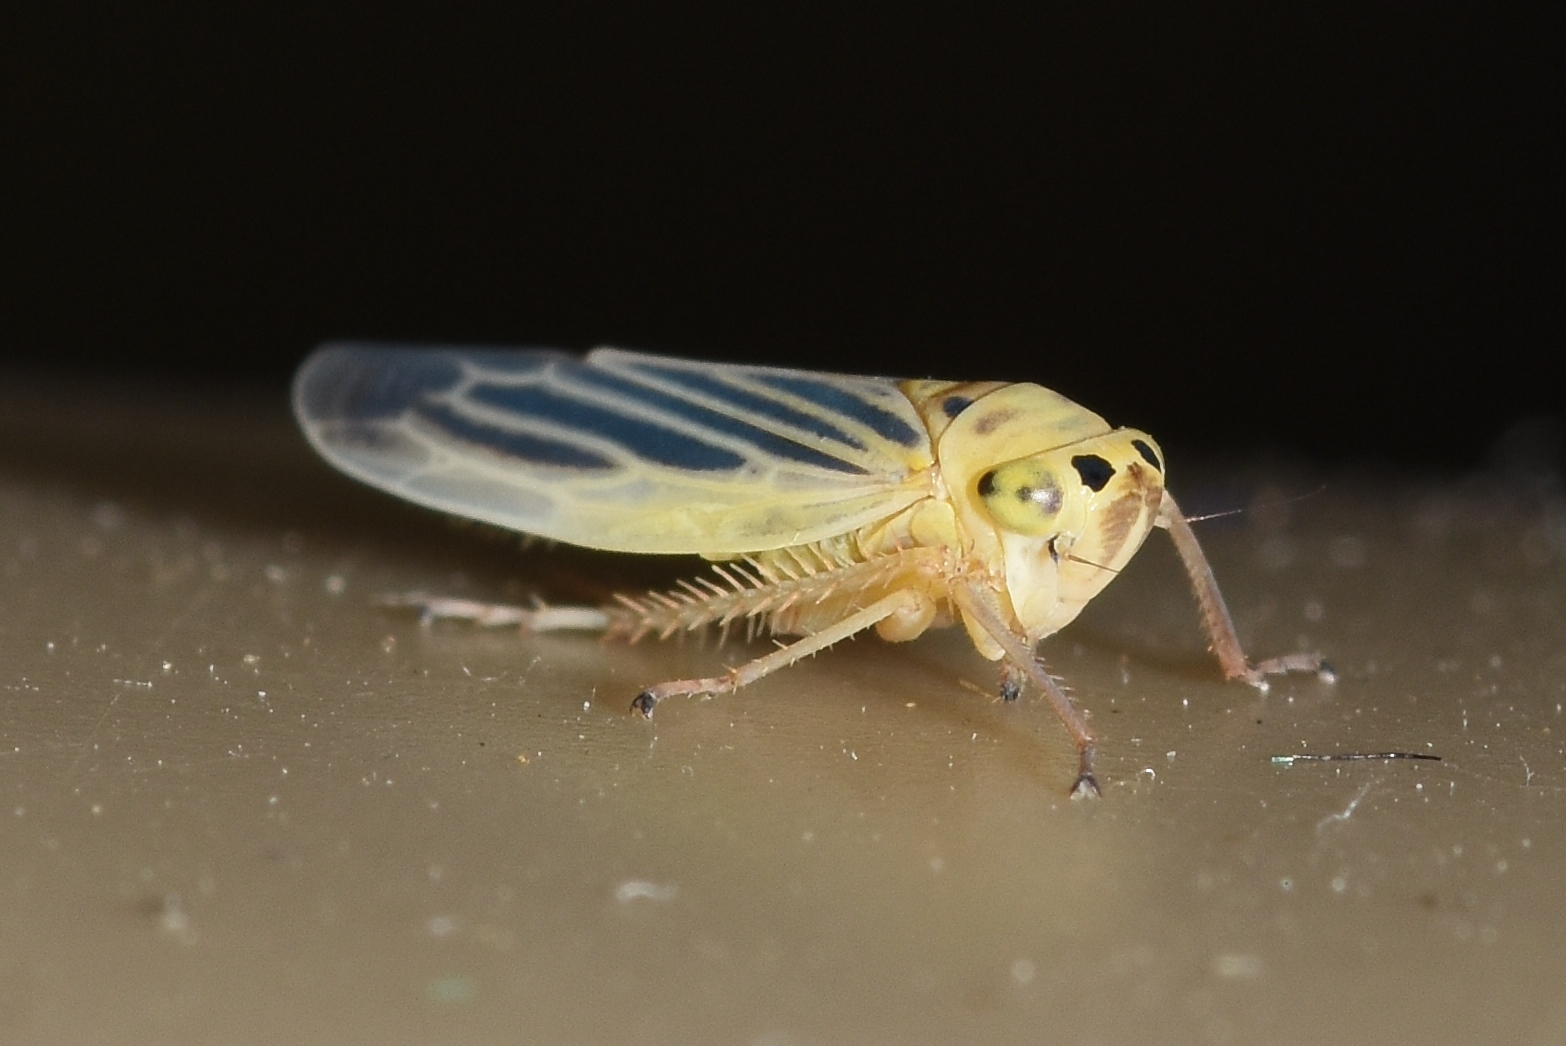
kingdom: Animalia
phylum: Arthropoda
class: Insecta
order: Hemiptera
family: Cicadellidae
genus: Davisonia
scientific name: Davisonia americana
